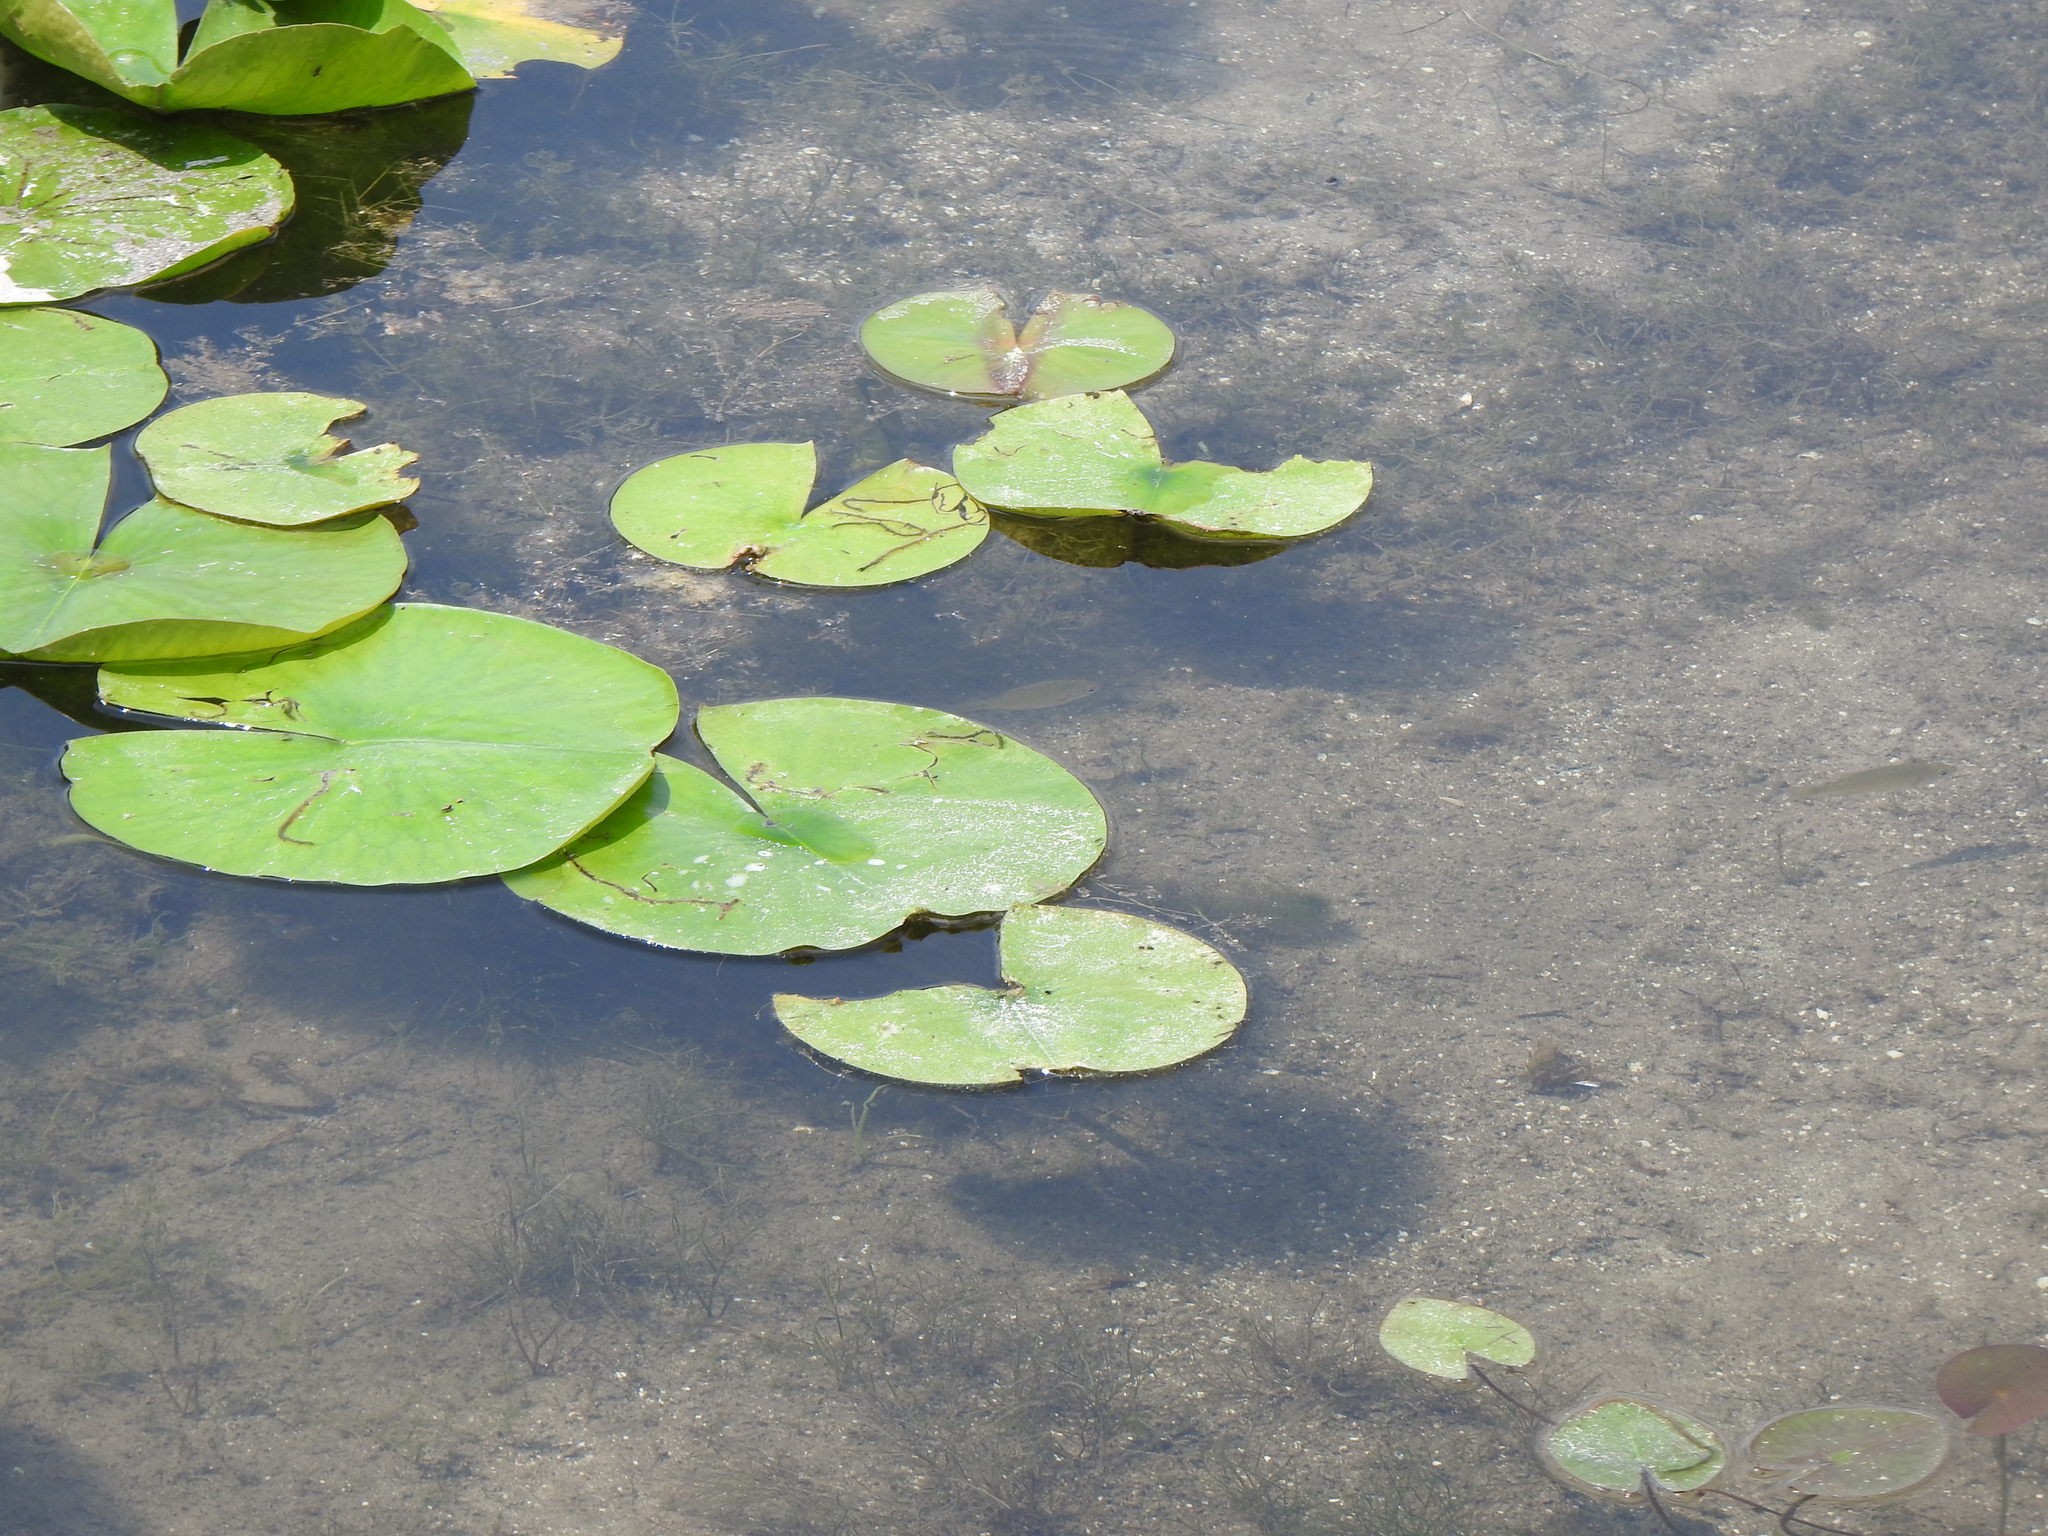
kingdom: Plantae
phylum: Tracheophyta
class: Magnoliopsida
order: Nymphaeales
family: Nymphaeaceae
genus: Nymphaea
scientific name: Nymphaea odorata
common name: Fragrant water-lily
